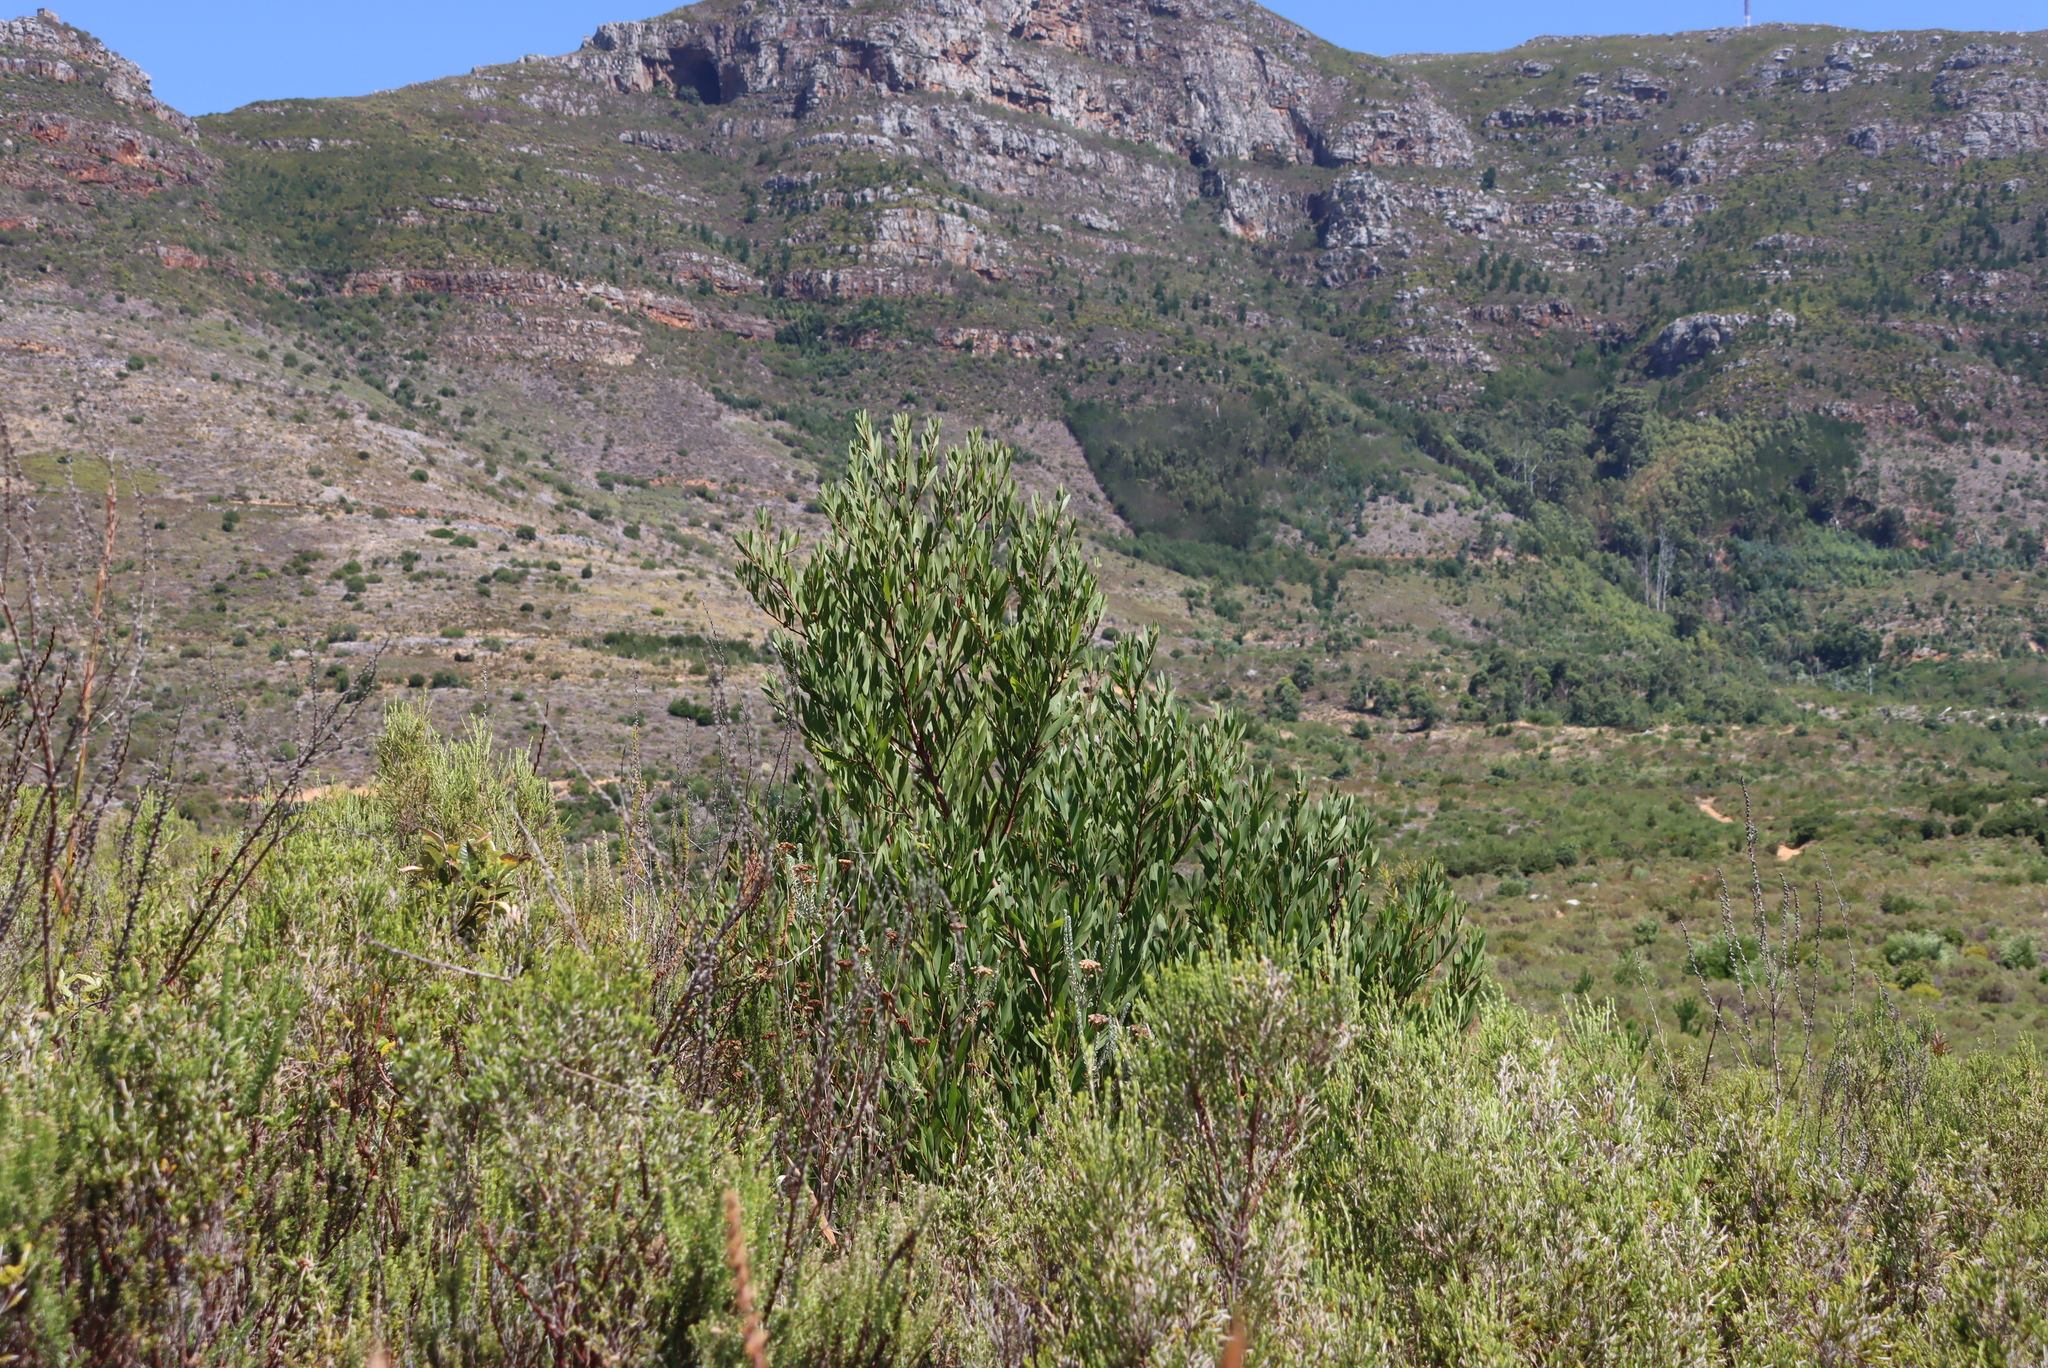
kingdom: Plantae
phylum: Tracheophyta
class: Magnoliopsida
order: Fabales
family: Fabaceae
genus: Acacia
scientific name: Acacia longifolia
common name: Sydney golden wattle
